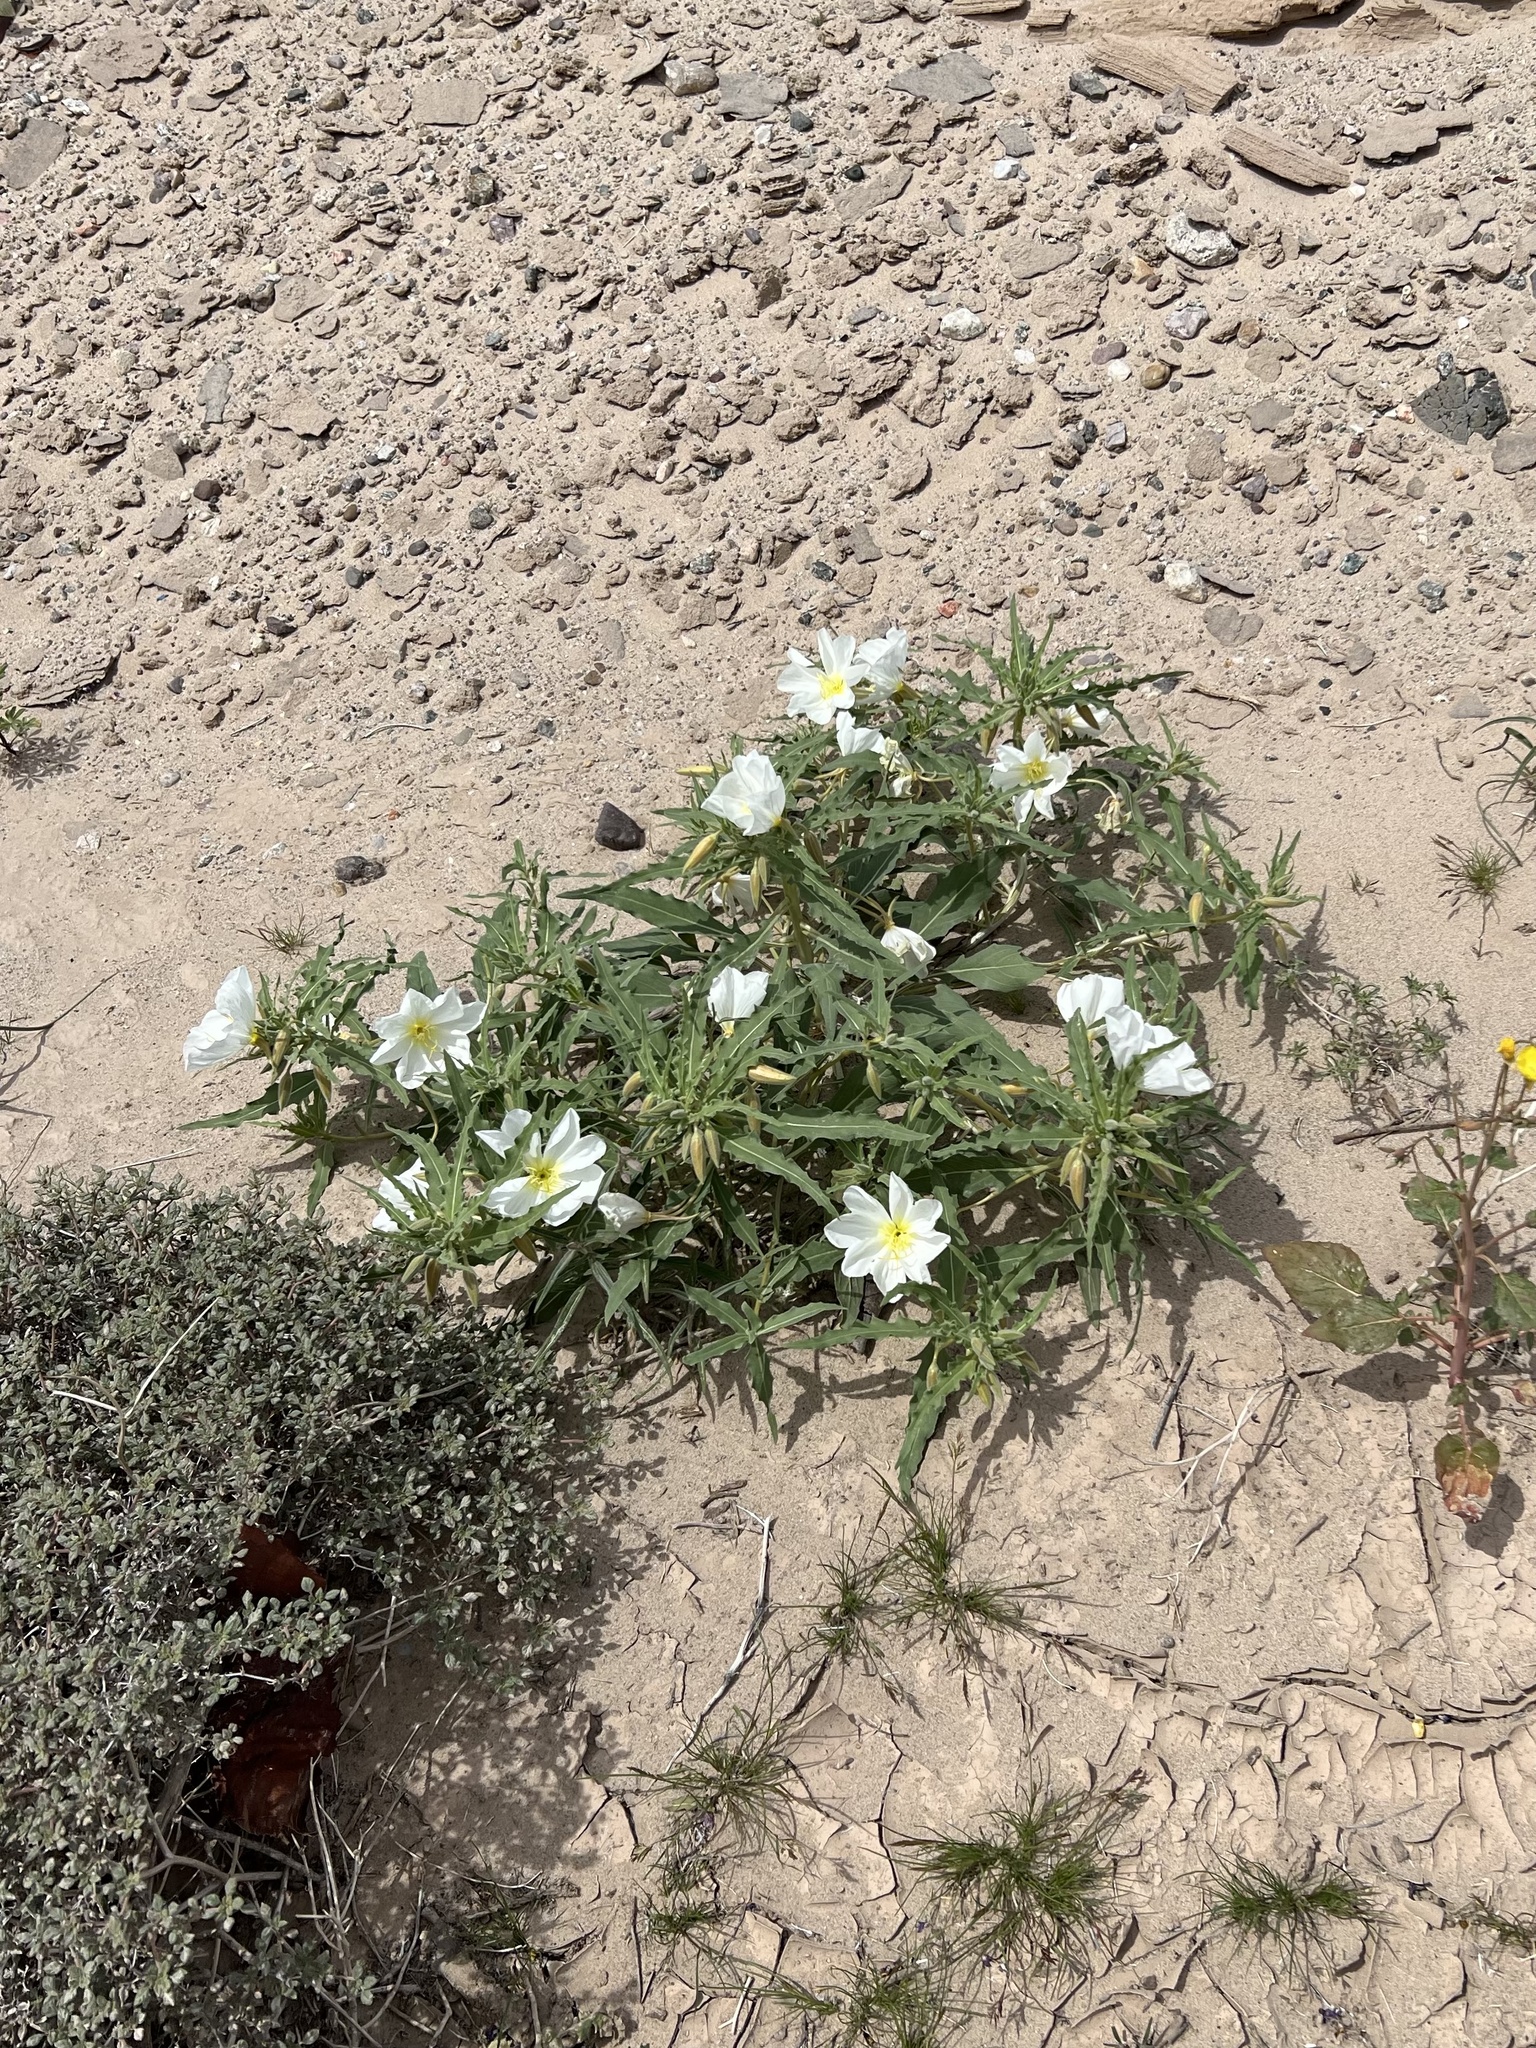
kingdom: Plantae
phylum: Tracheophyta
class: Magnoliopsida
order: Myrtales
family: Onagraceae
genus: Oenothera
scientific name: Oenothera deltoides
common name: Basket evening-primrose
